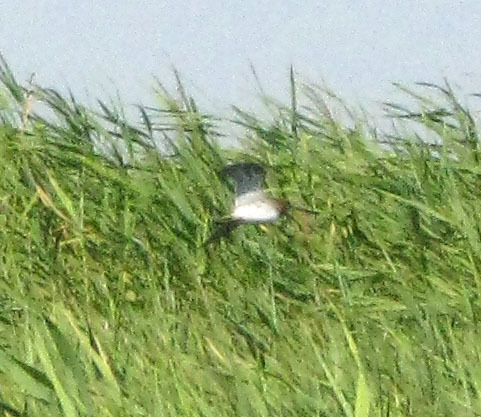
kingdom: Animalia
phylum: Chordata
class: Aves
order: Charadriiformes
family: Scolopacidae
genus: Gallinago
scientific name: Gallinago gallinago
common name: Common snipe
